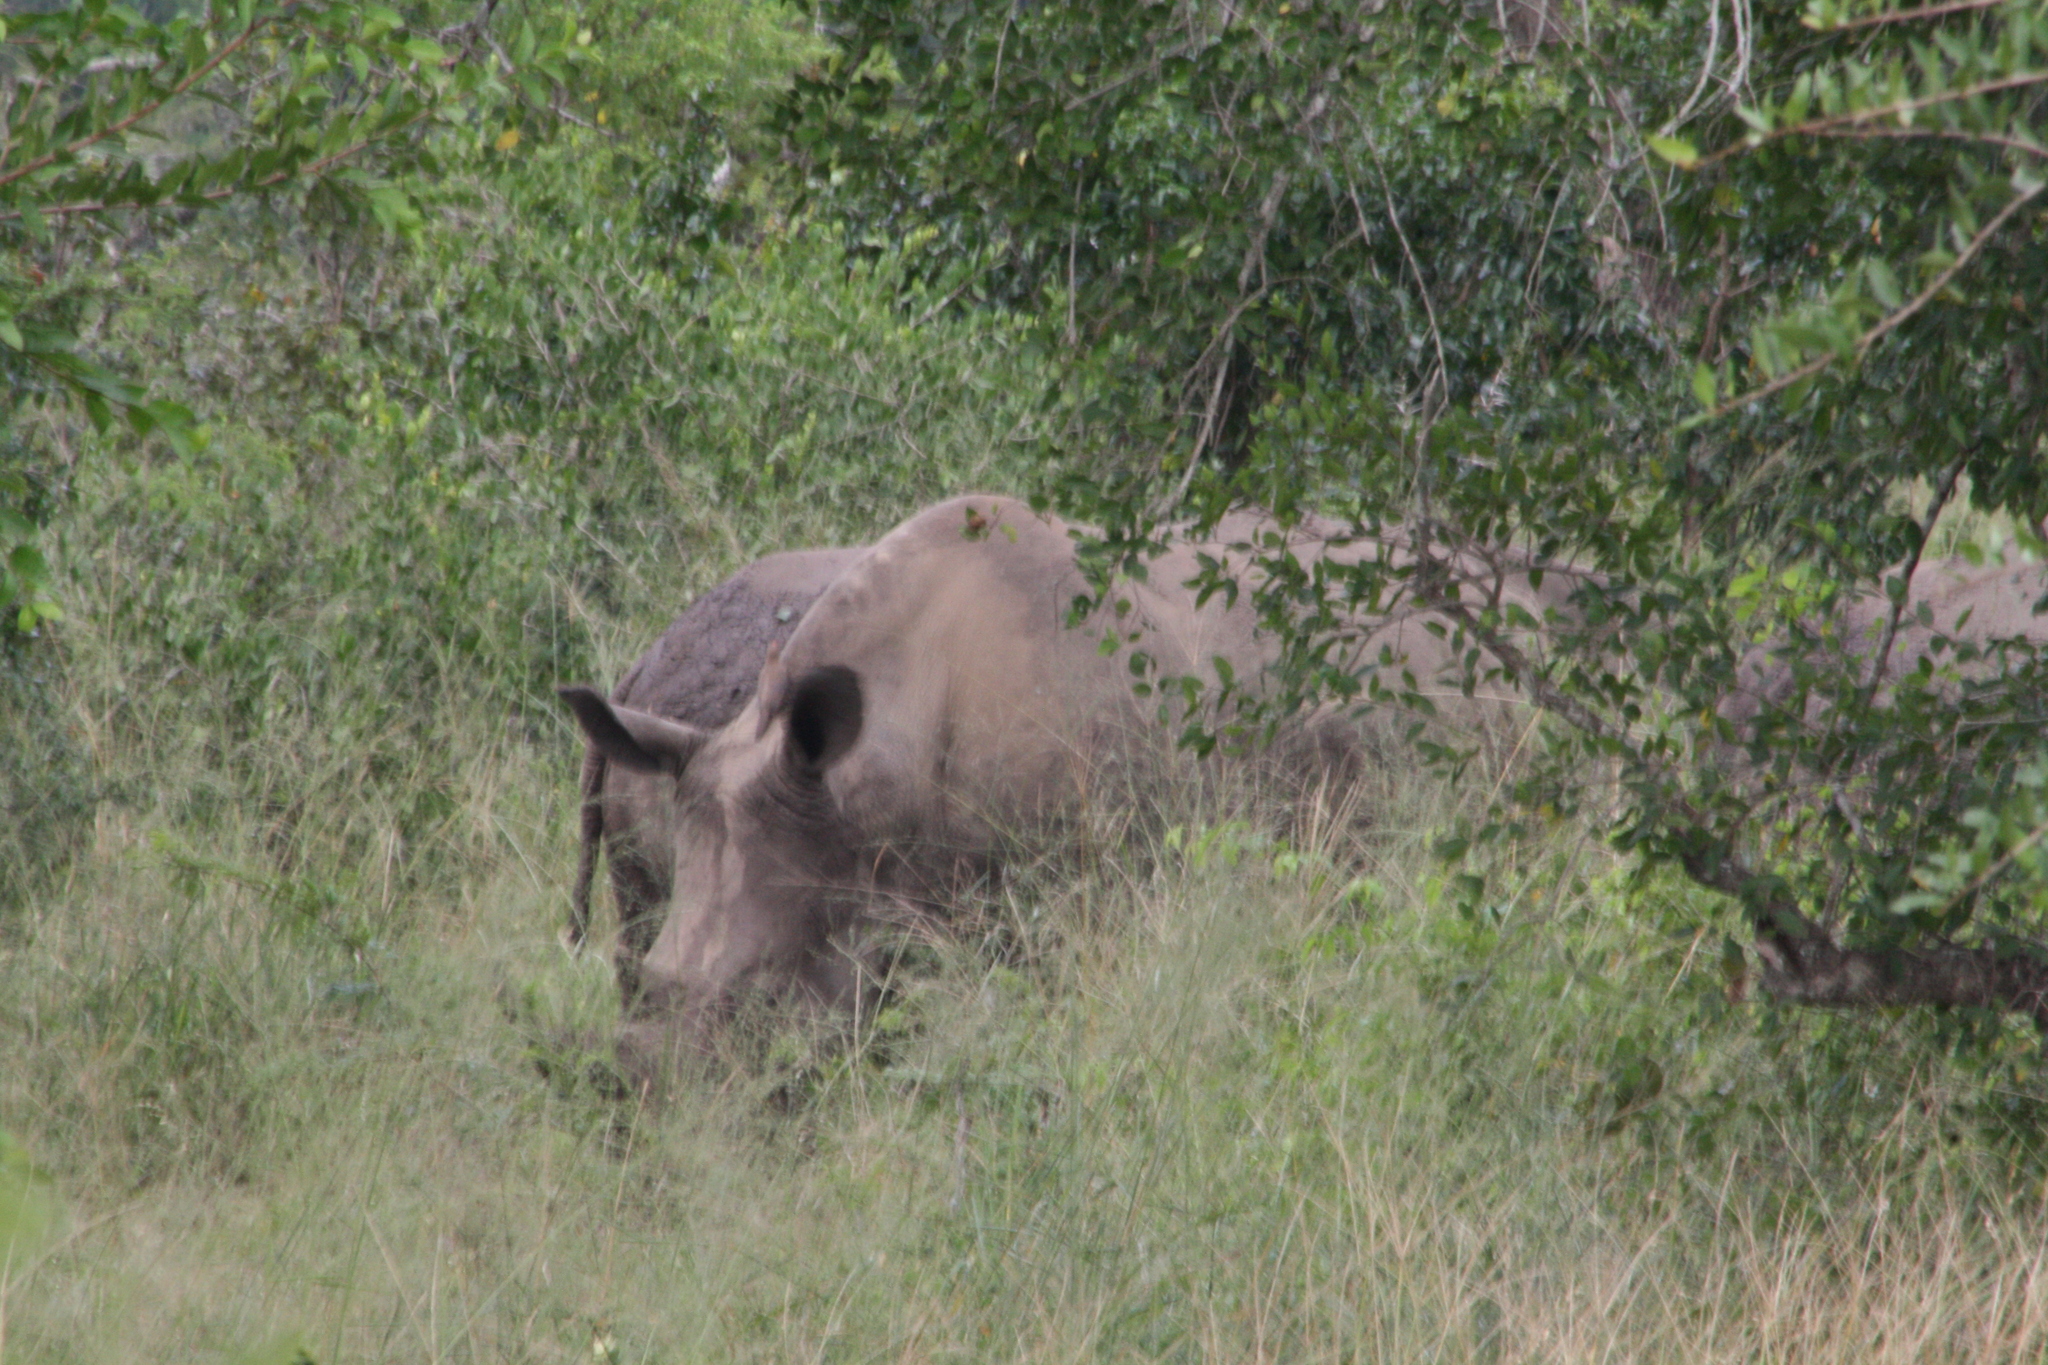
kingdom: Animalia
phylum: Chordata
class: Mammalia
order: Perissodactyla
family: Rhinocerotidae
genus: Diceros
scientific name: Diceros bicornis
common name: Black rhinoceros
